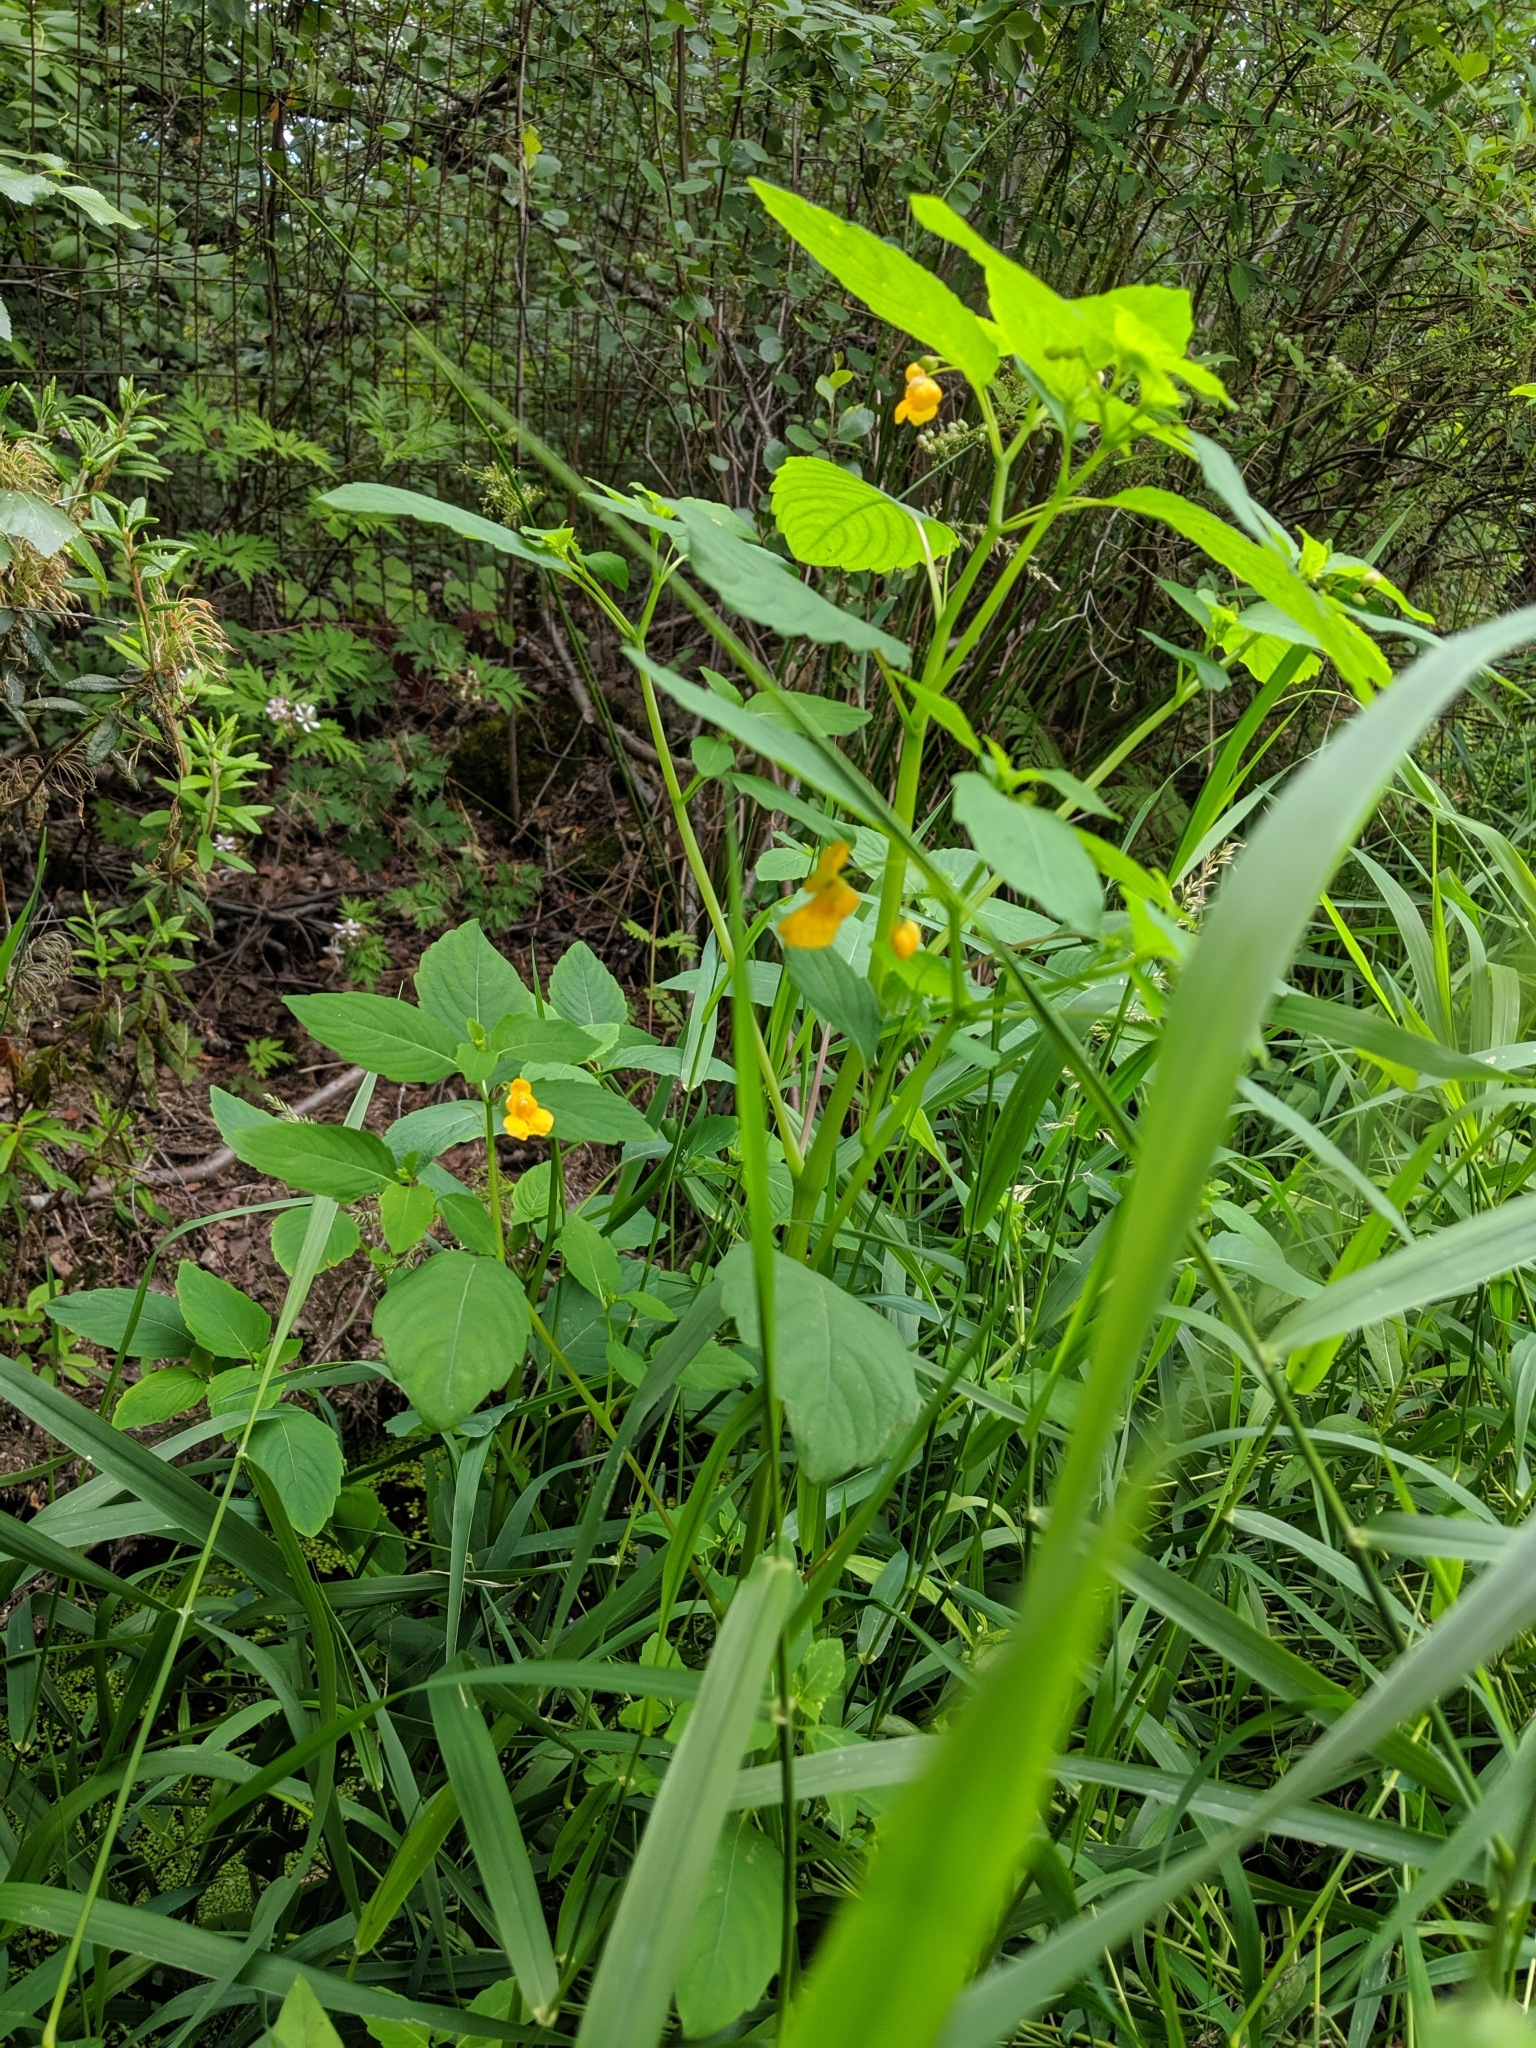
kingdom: Plantae
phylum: Tracheophyta
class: Magnoliopsida
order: Ericales
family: Balsaminaceae
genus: Impatiens
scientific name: Impatiens ecornuta
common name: Spurless jewelweed
